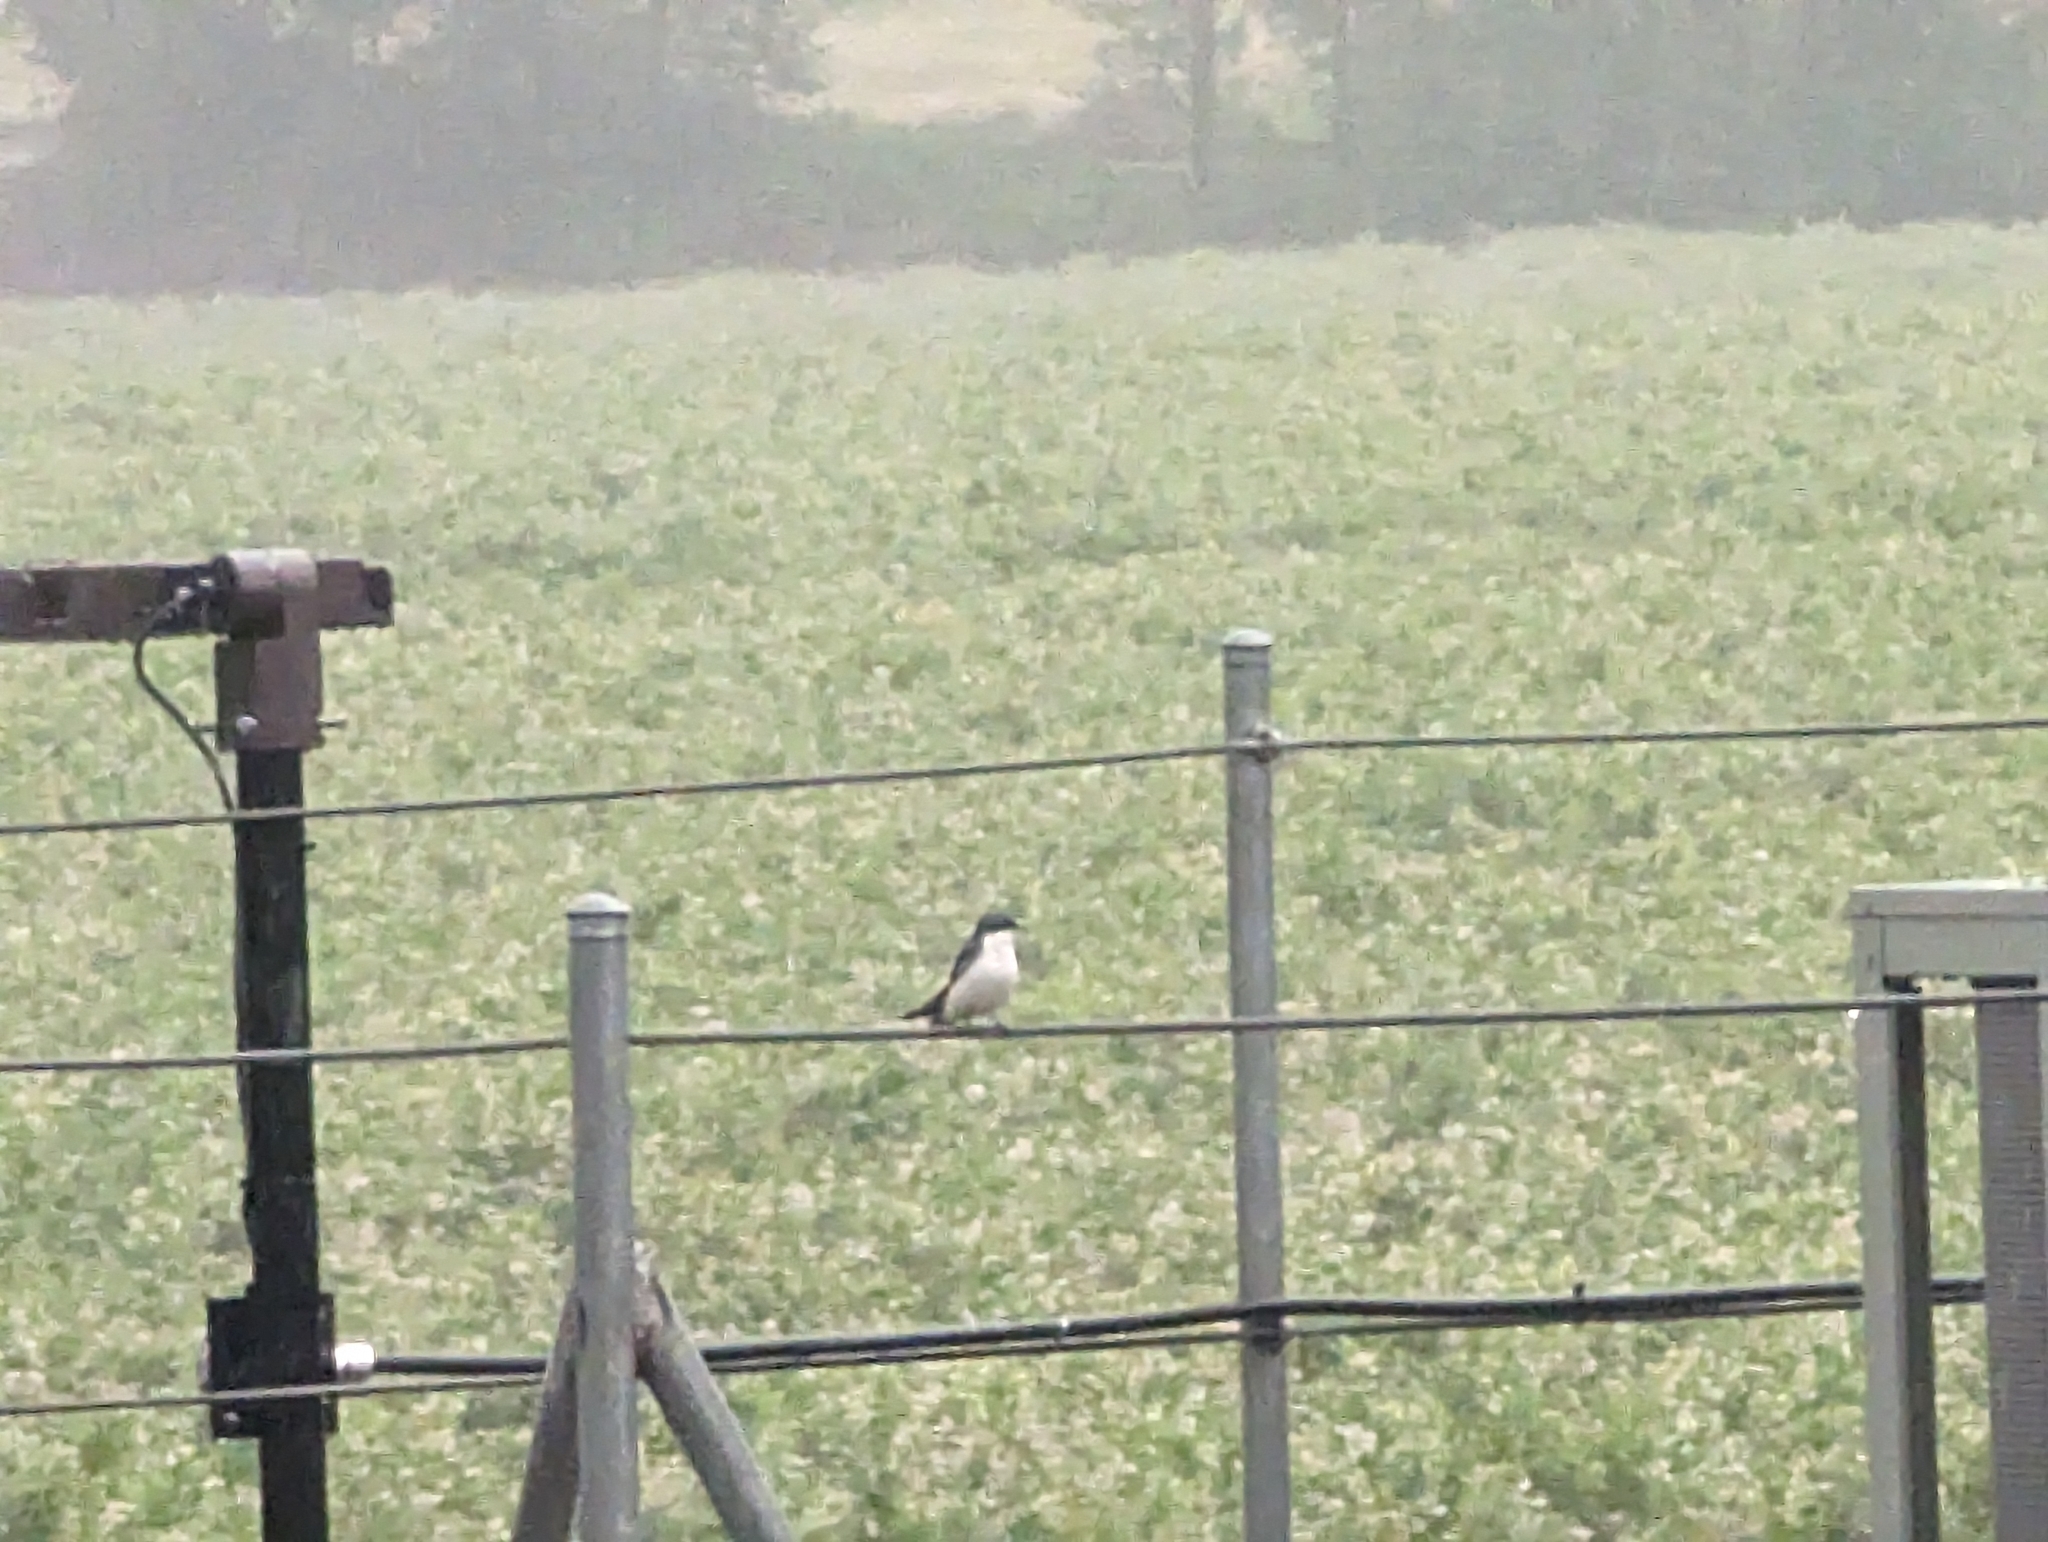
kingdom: Animalia
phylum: Chordata
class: Aves
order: Passeriformes
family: Hirundinidae
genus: Tachycineta
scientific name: Tachycineta bicolor
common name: Tree swallow
